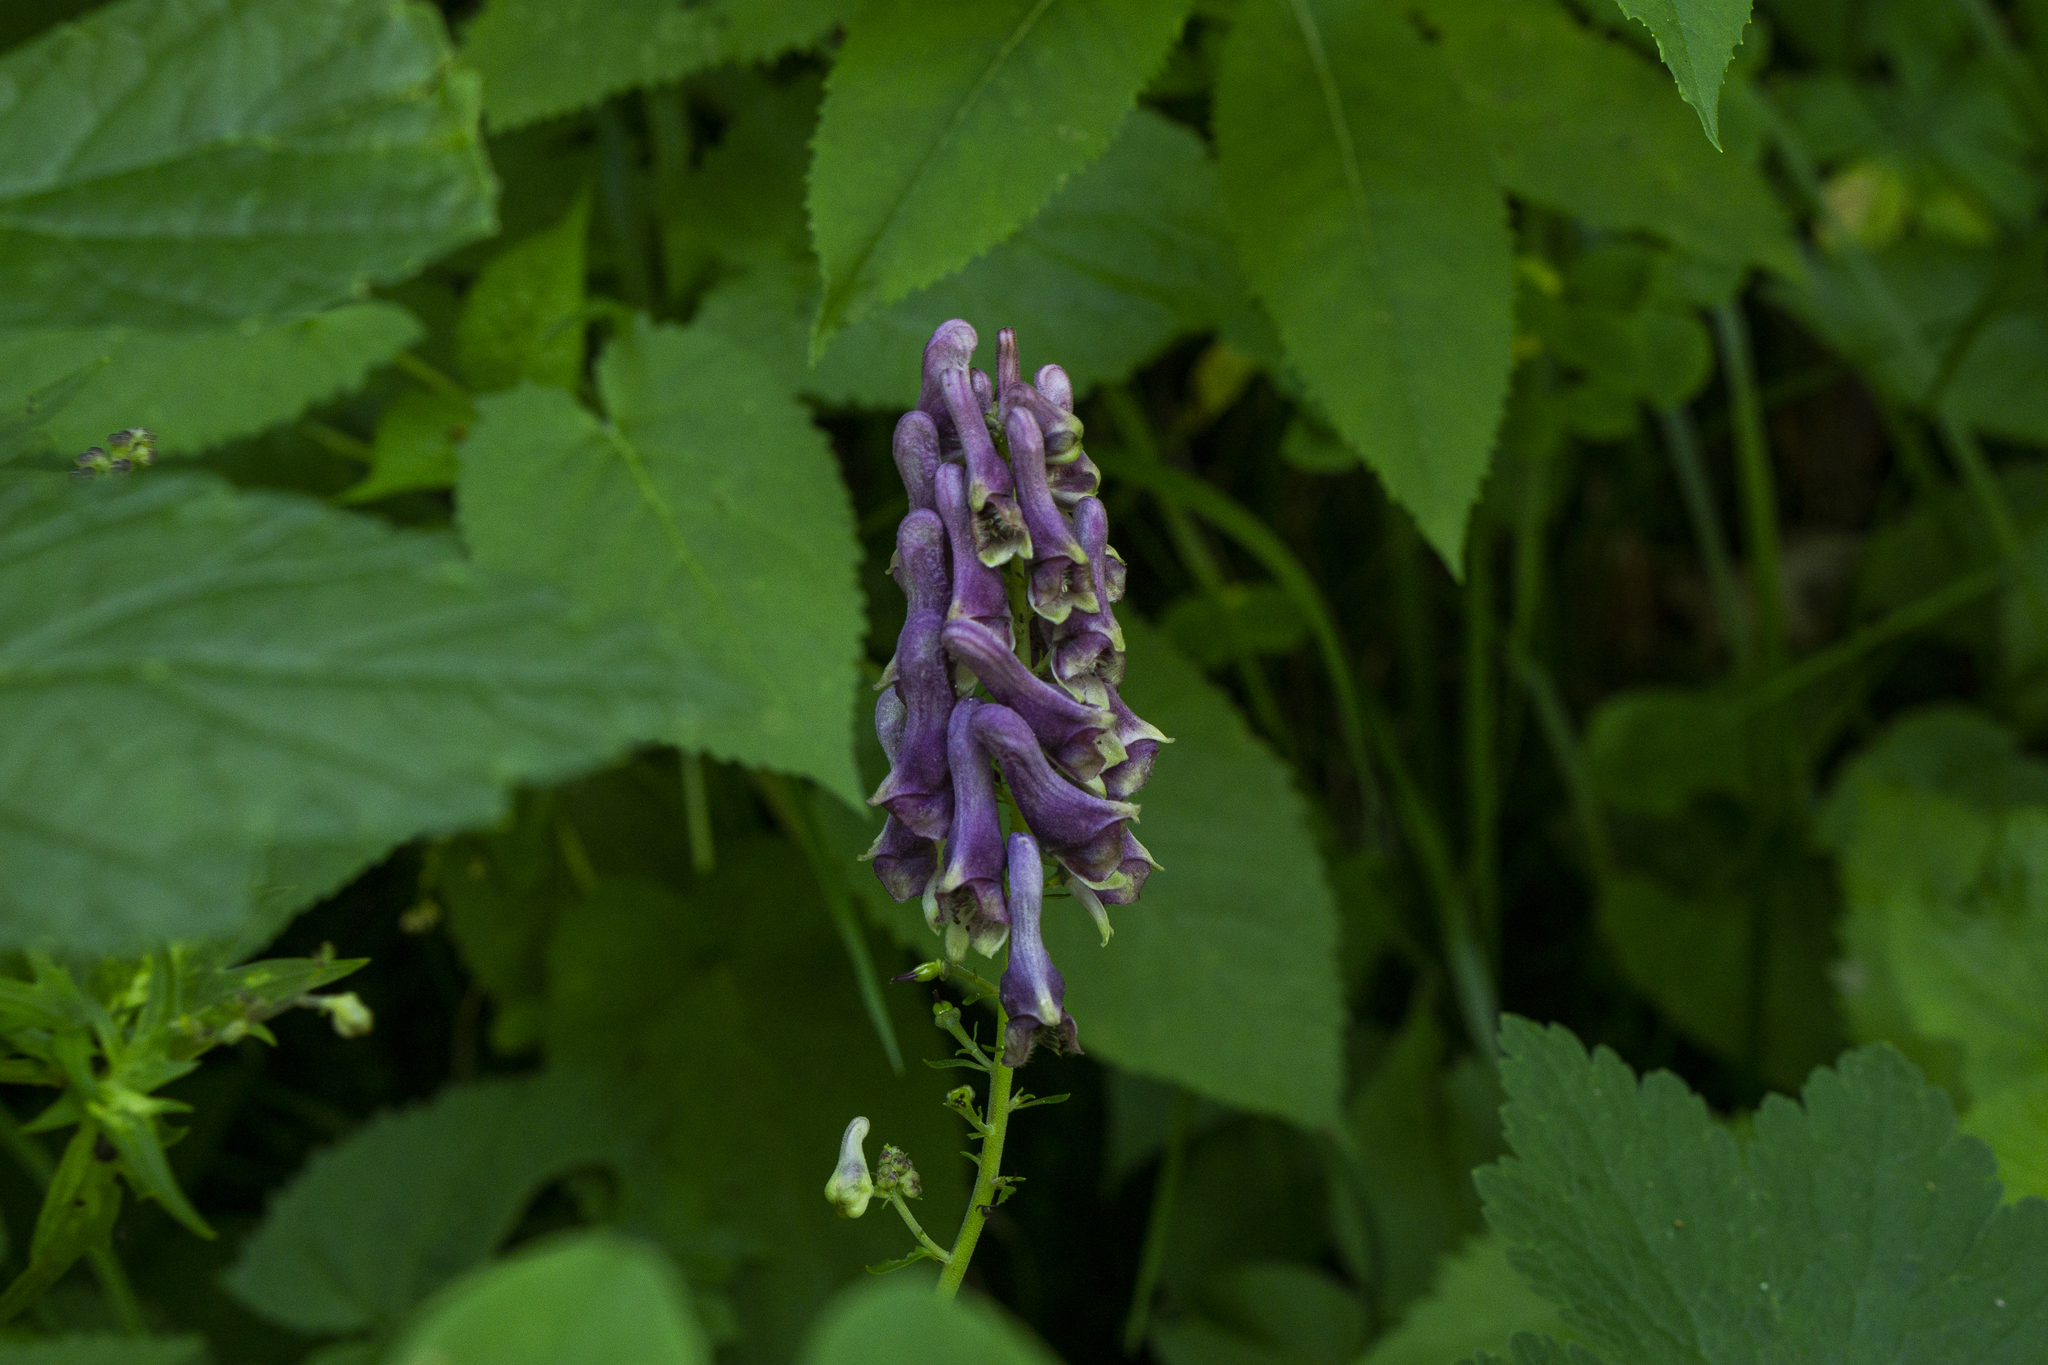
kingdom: Plantae
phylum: Tracheophyta
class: Magnoliopsida
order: Ranunculales
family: Ranunculaceae
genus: Aconitum
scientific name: Aconitum lycoctonum
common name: Wolf's-bane
